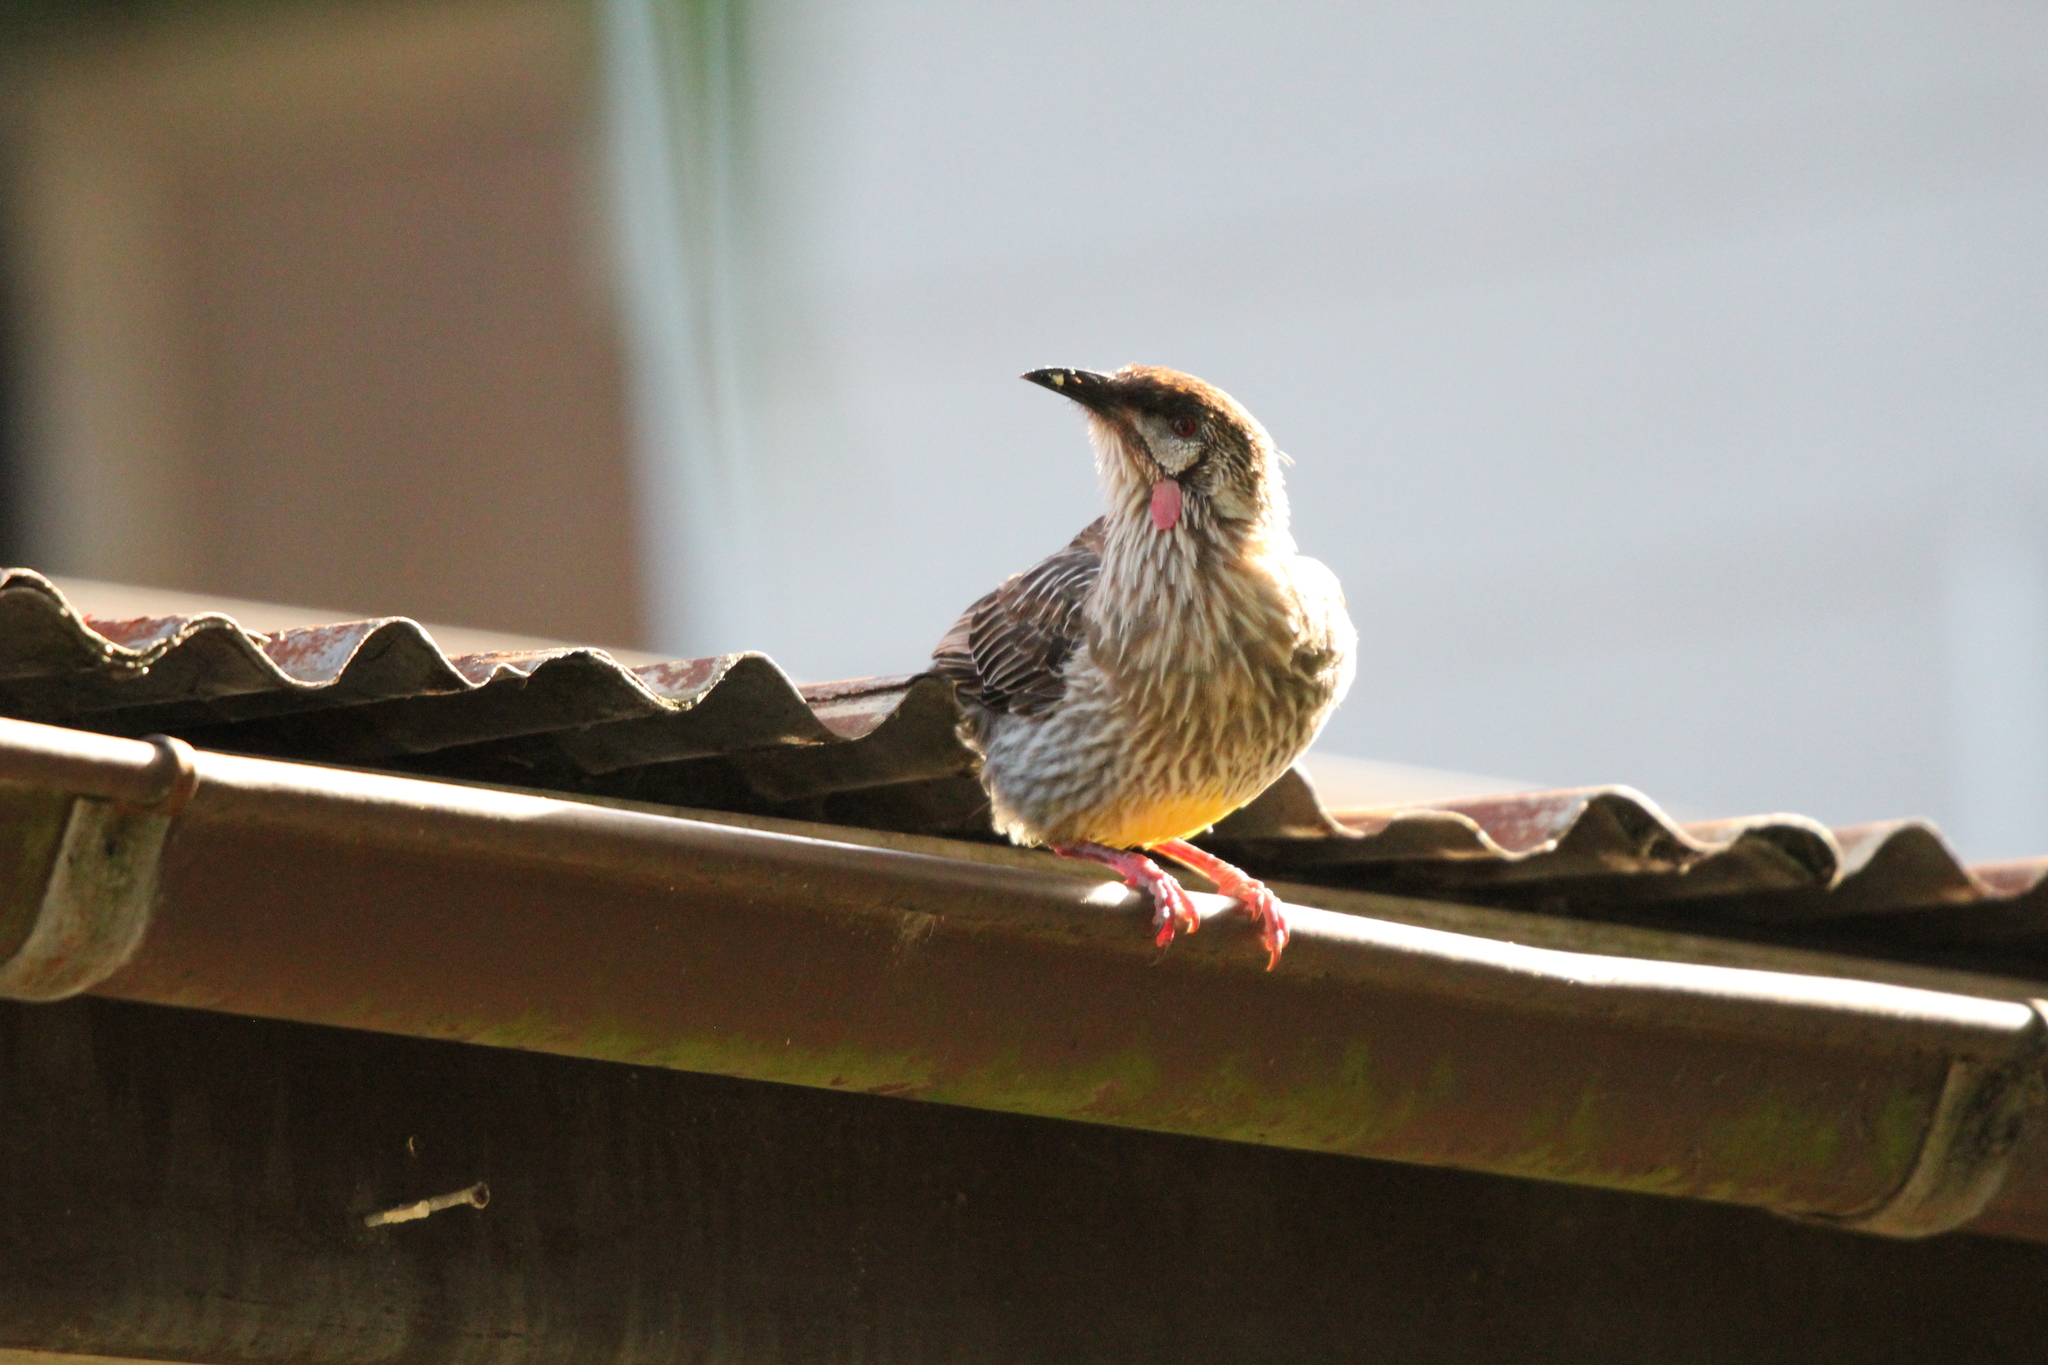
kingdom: Animalia
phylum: Chordata
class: Aves
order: Passeriformes
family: Meliphagidae
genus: Anthochaera
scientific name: Anthochaera carunculata
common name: Red wattlebird
